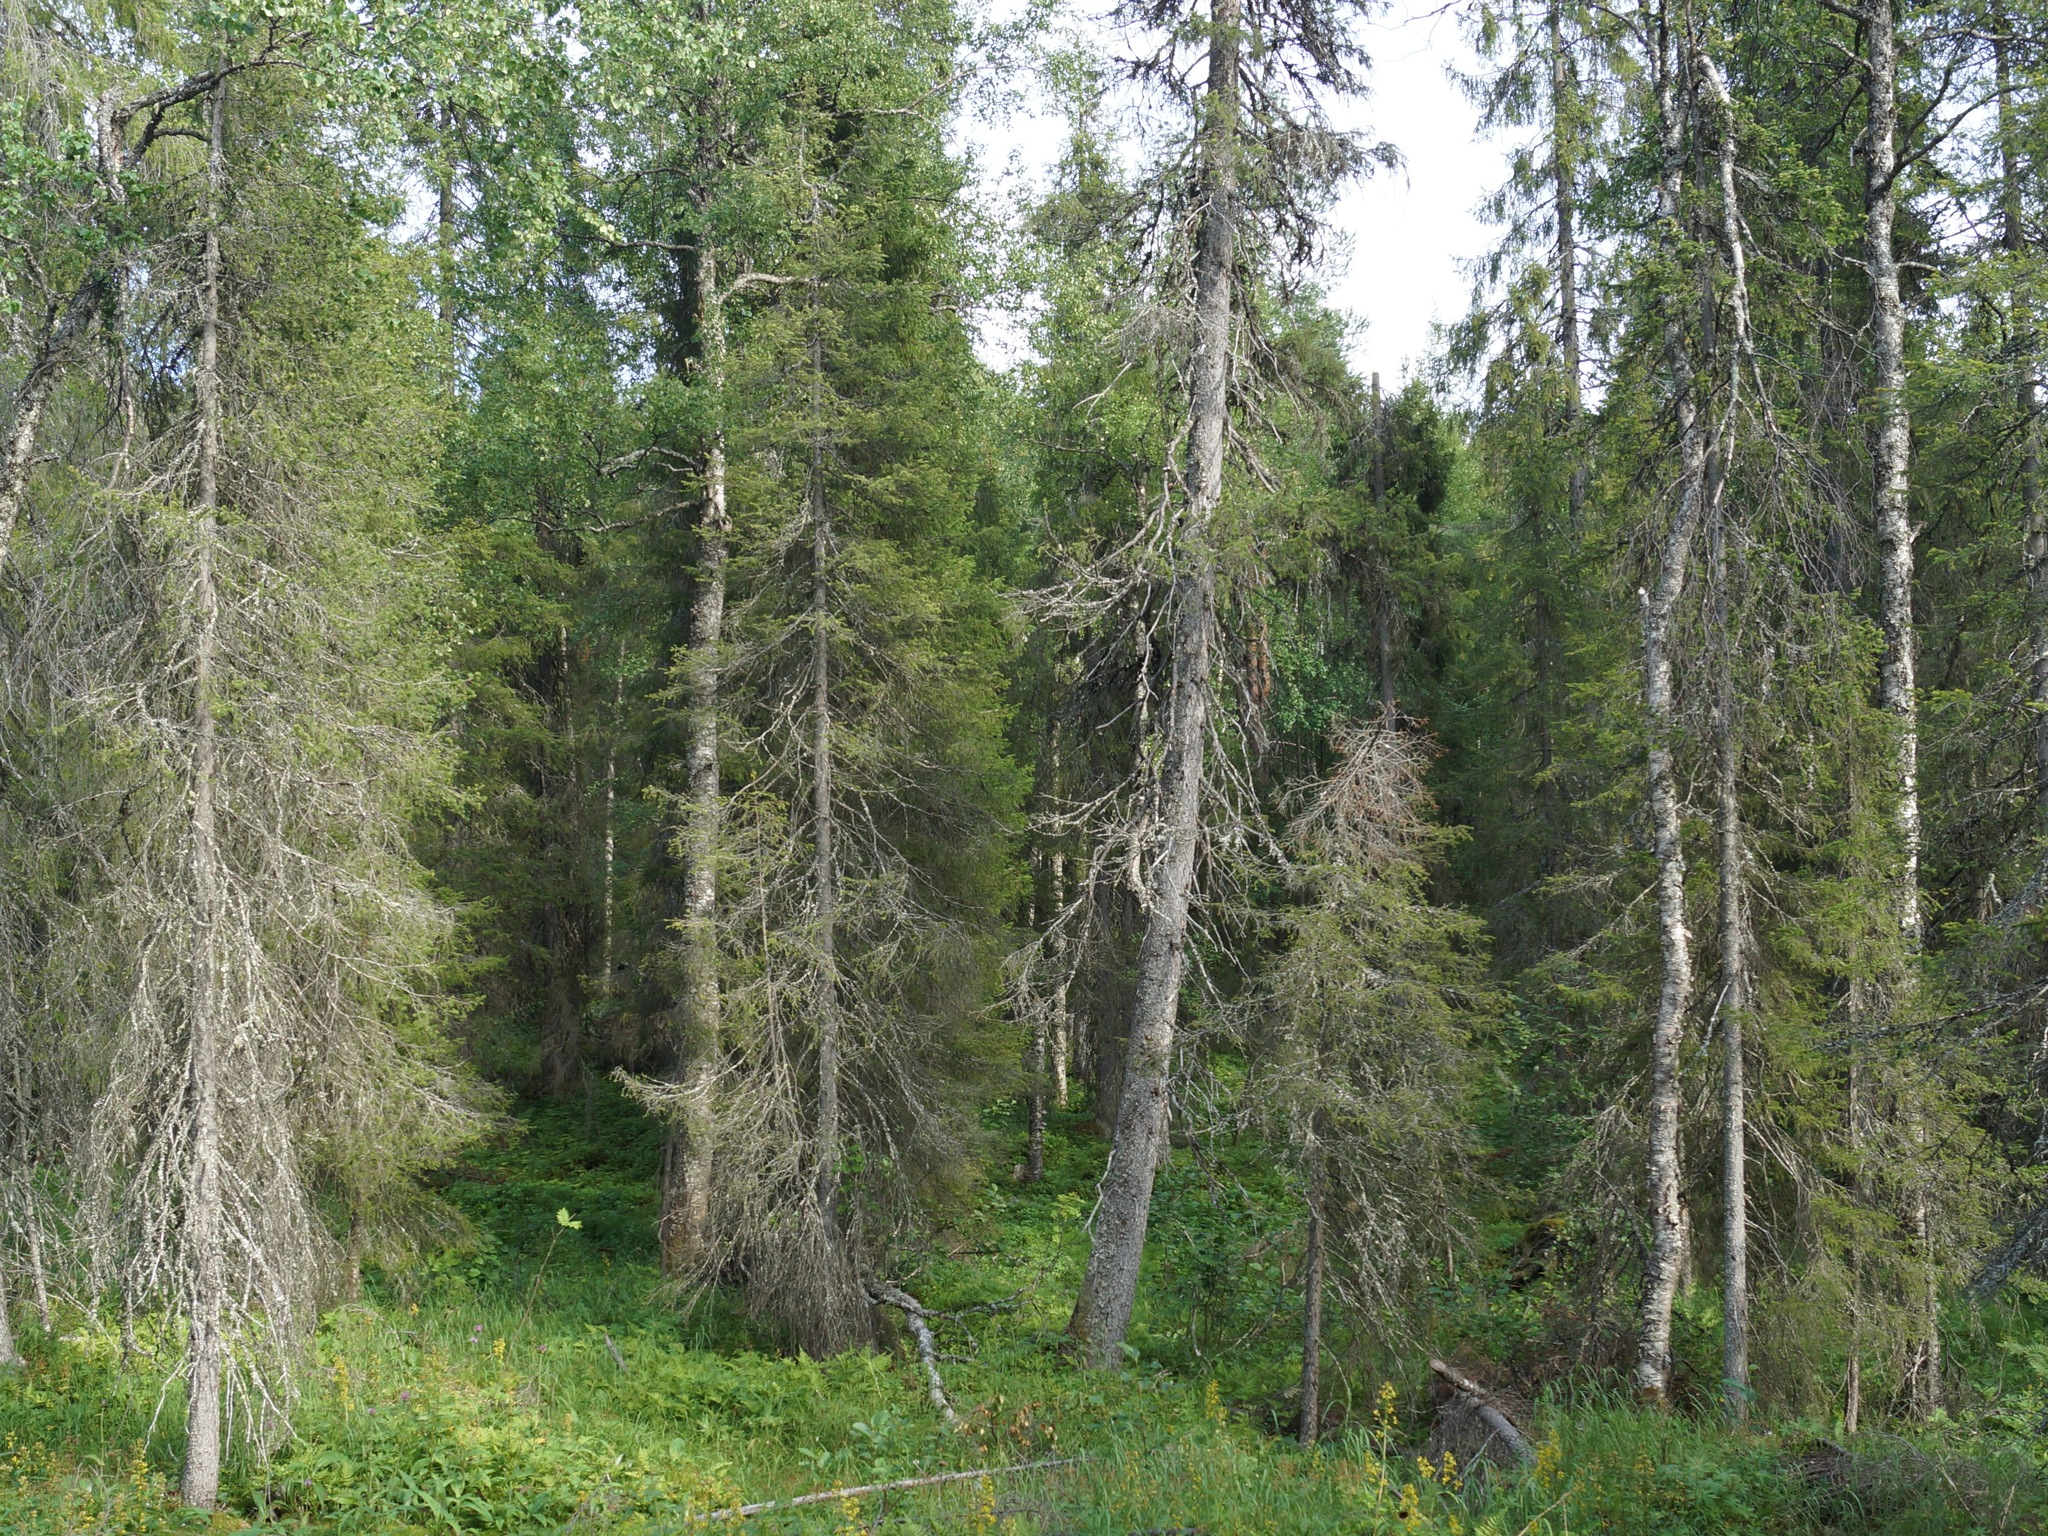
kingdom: Plantae
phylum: Tracheophyta
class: Pinopsida
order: Pinales
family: Pinaceae
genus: Picea
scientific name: Picea
